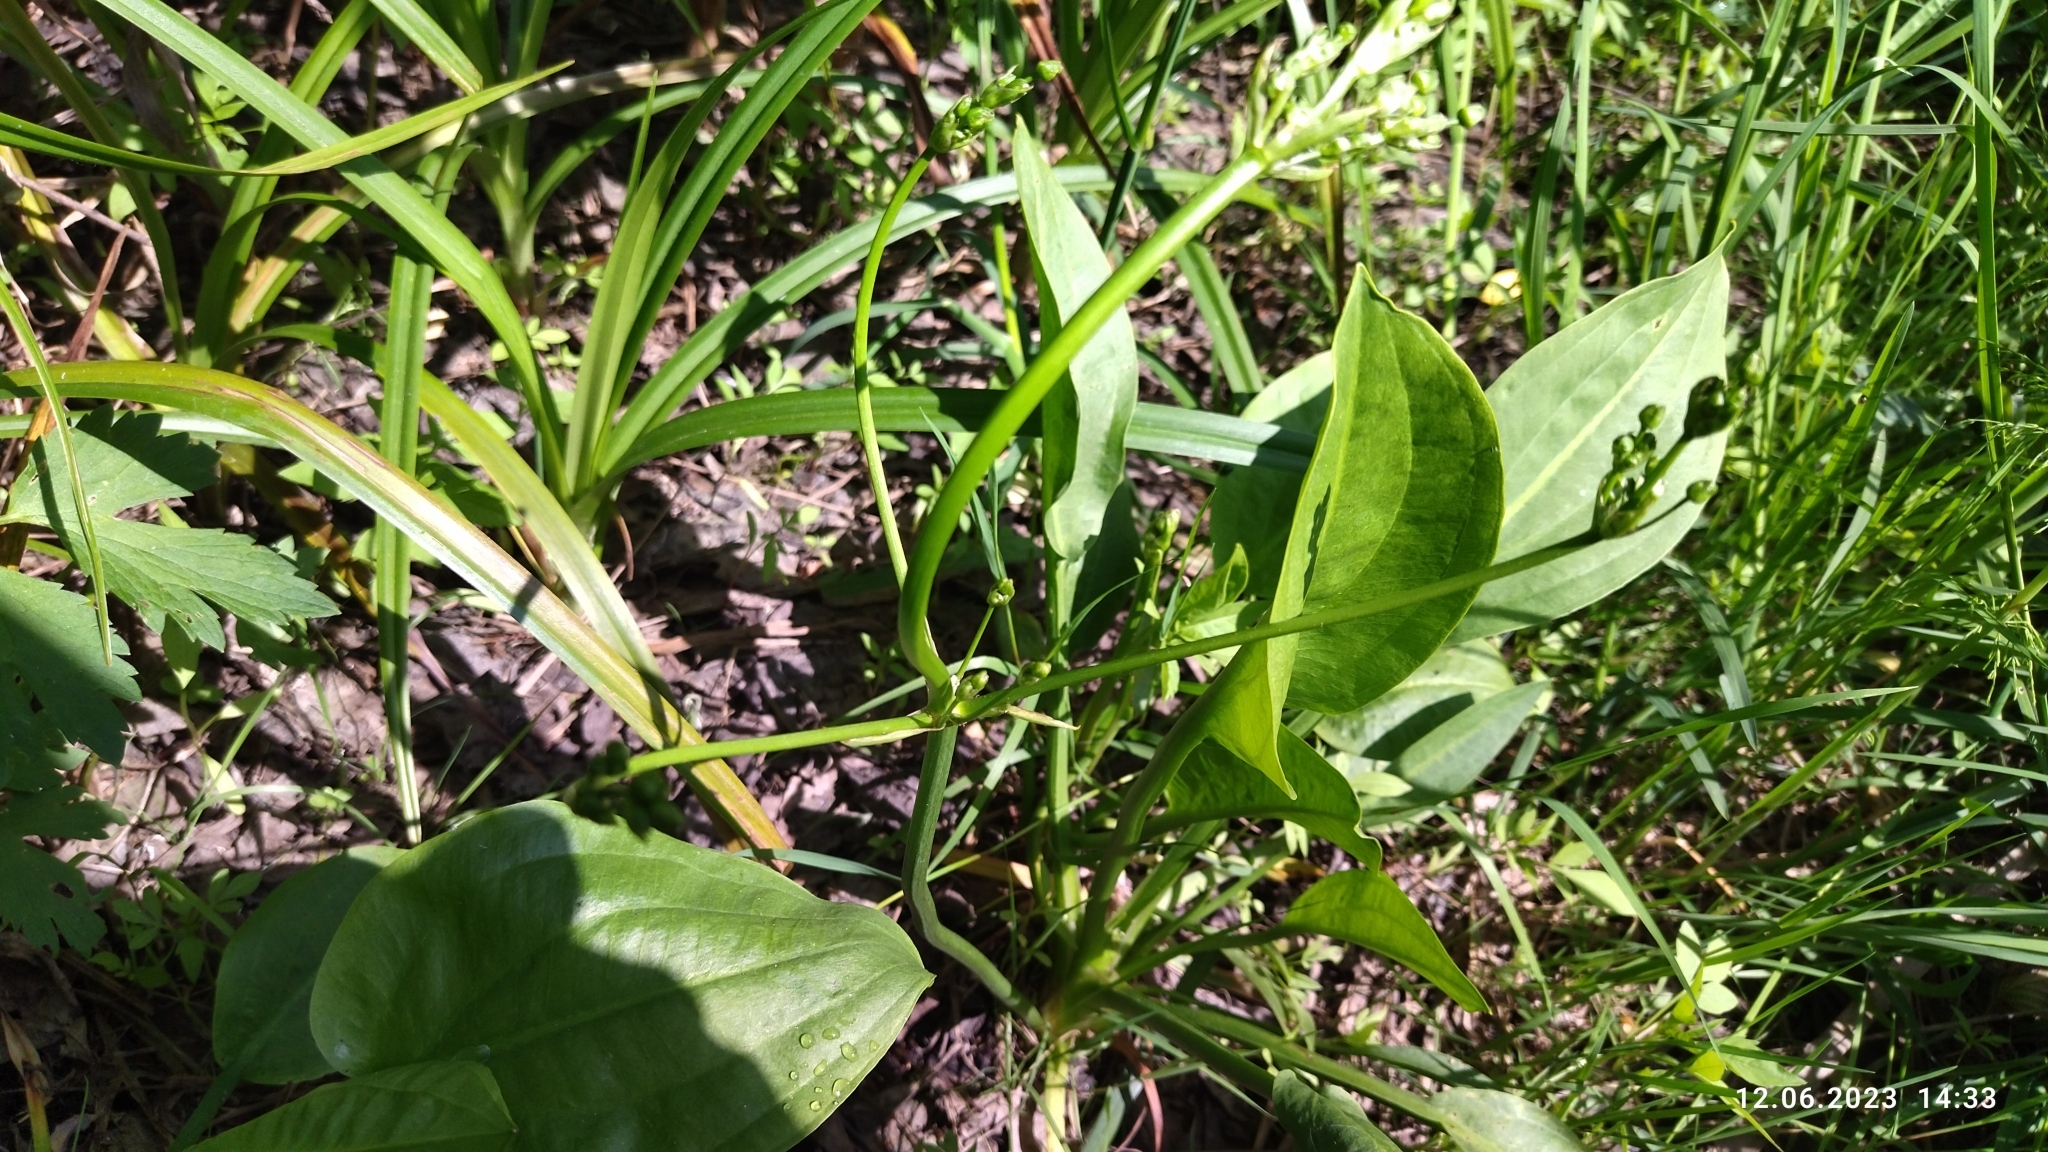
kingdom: Plantae
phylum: Tracheophyta
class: Liliopsida
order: Alismatales
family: Alismataceae
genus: Alisma
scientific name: Alisma plantago-aquatica
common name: Water-plantain
